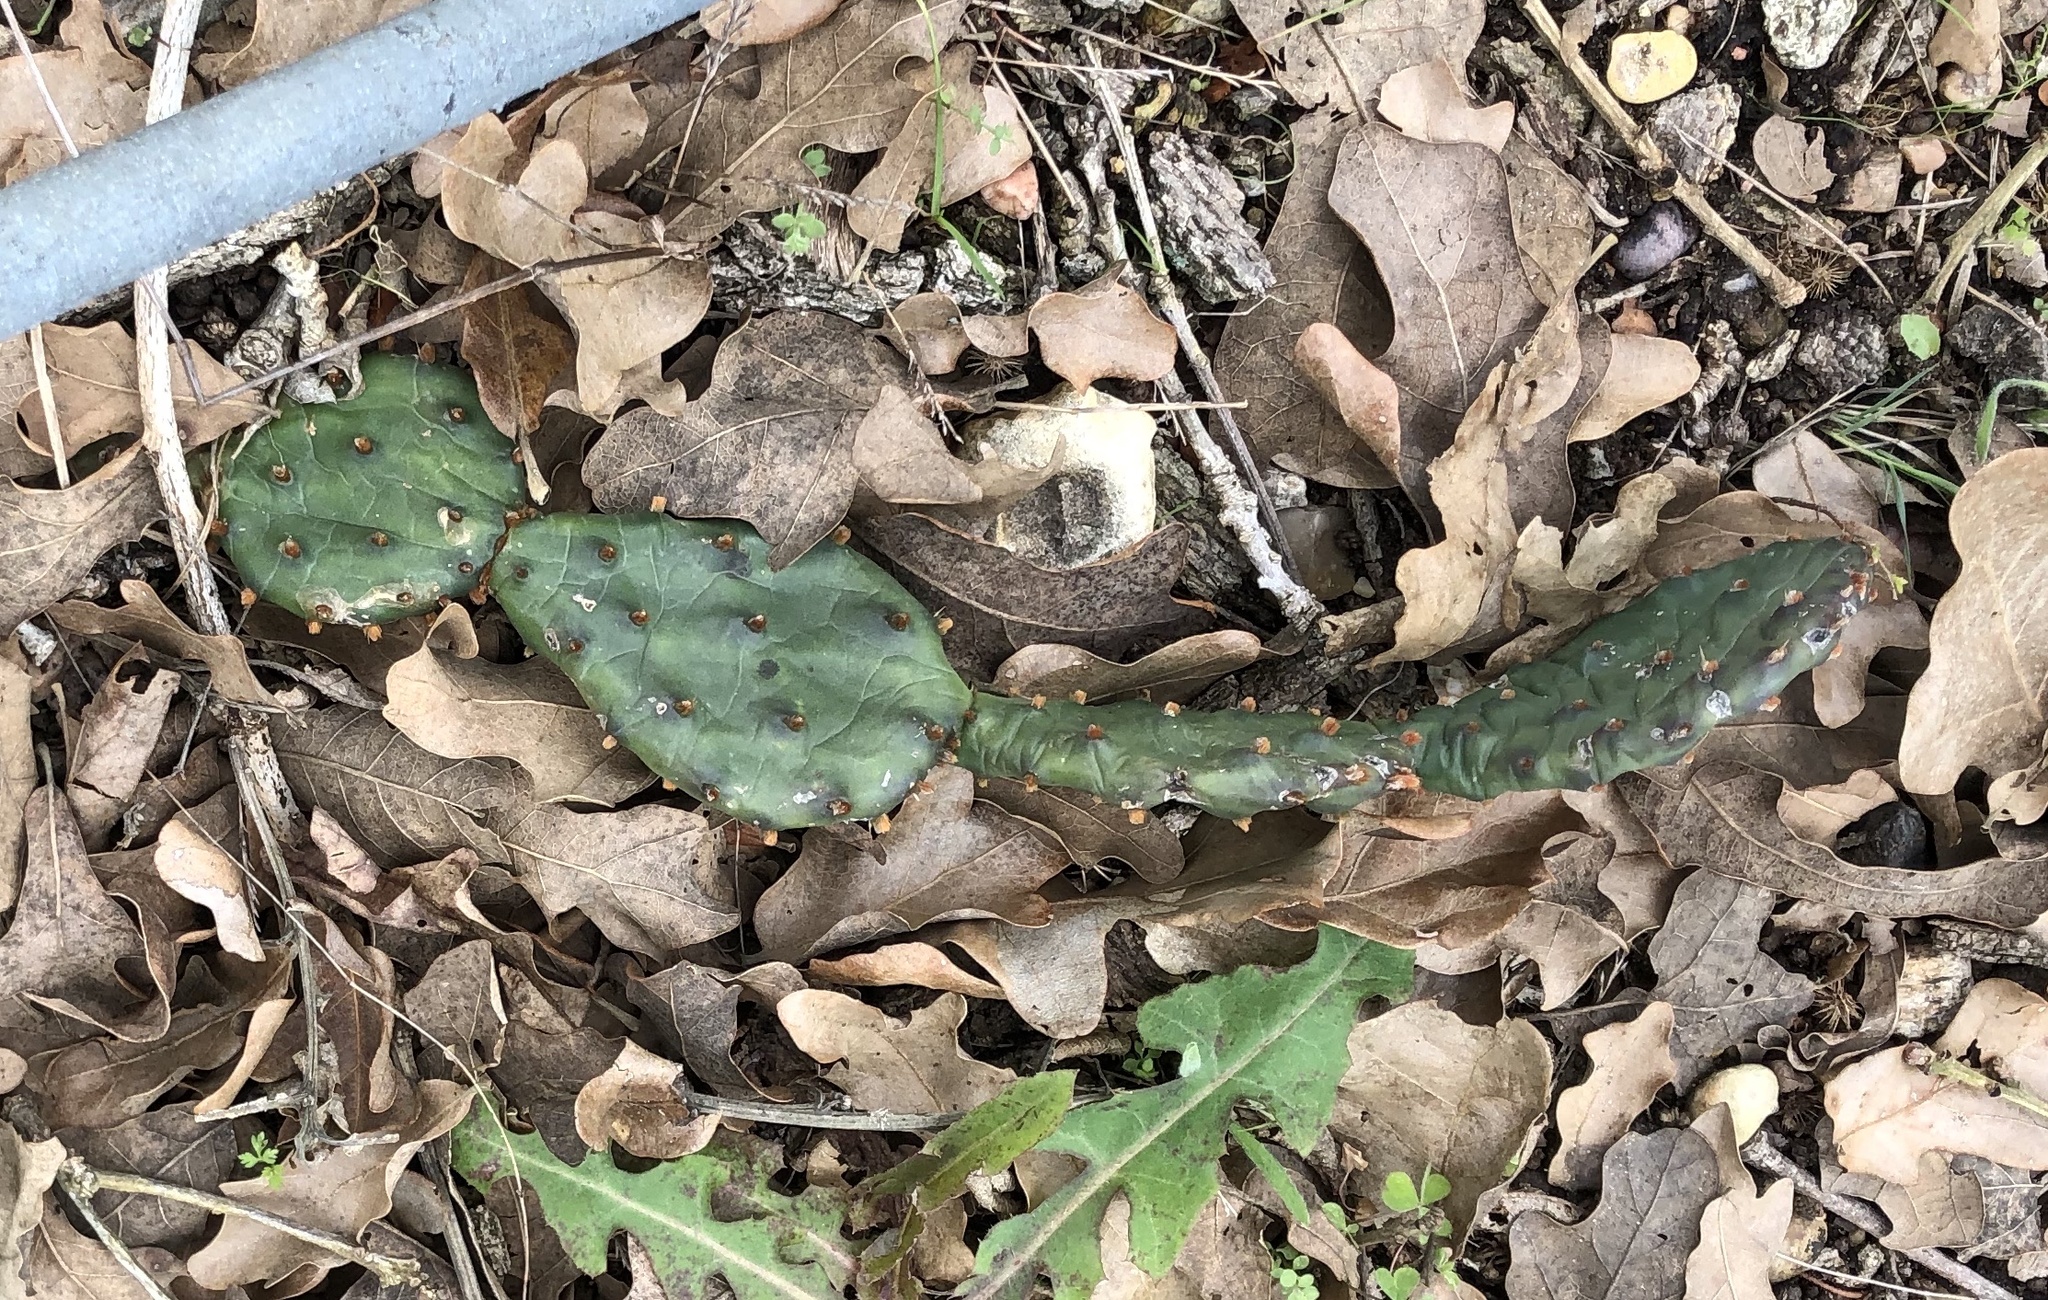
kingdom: Plantae
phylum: Tracheophyta
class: Magnoliopsida
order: Caryophyllales
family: Cactaceae
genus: Opuntia
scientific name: Opuntia macrorhiza
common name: Grassland pricklypear
